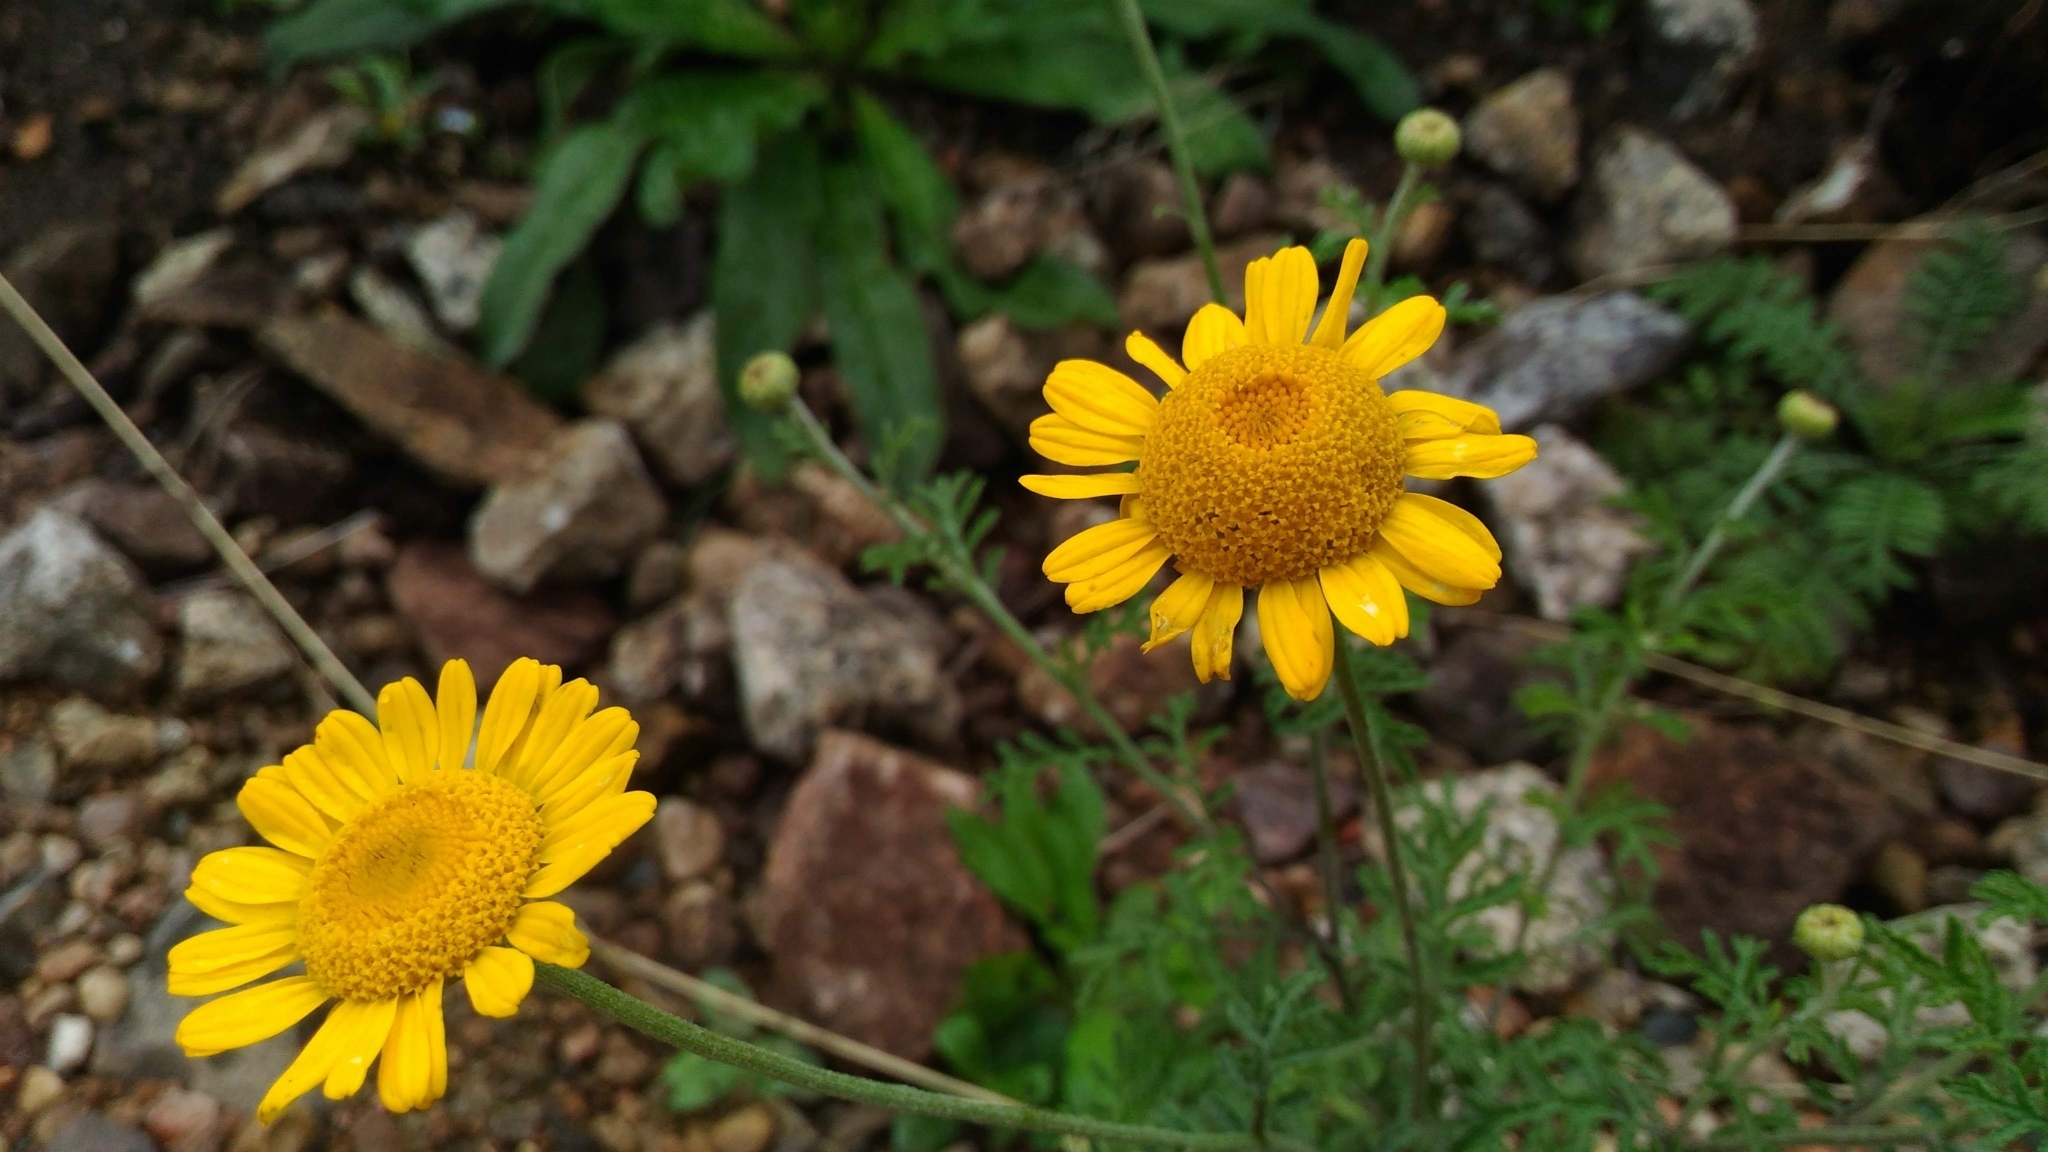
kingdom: Plantae
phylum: Tracheophyta
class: Magnoliopsida
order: Asterales
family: Asteraceae
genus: Cota
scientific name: Cota tinctoria
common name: Golden chamomile
